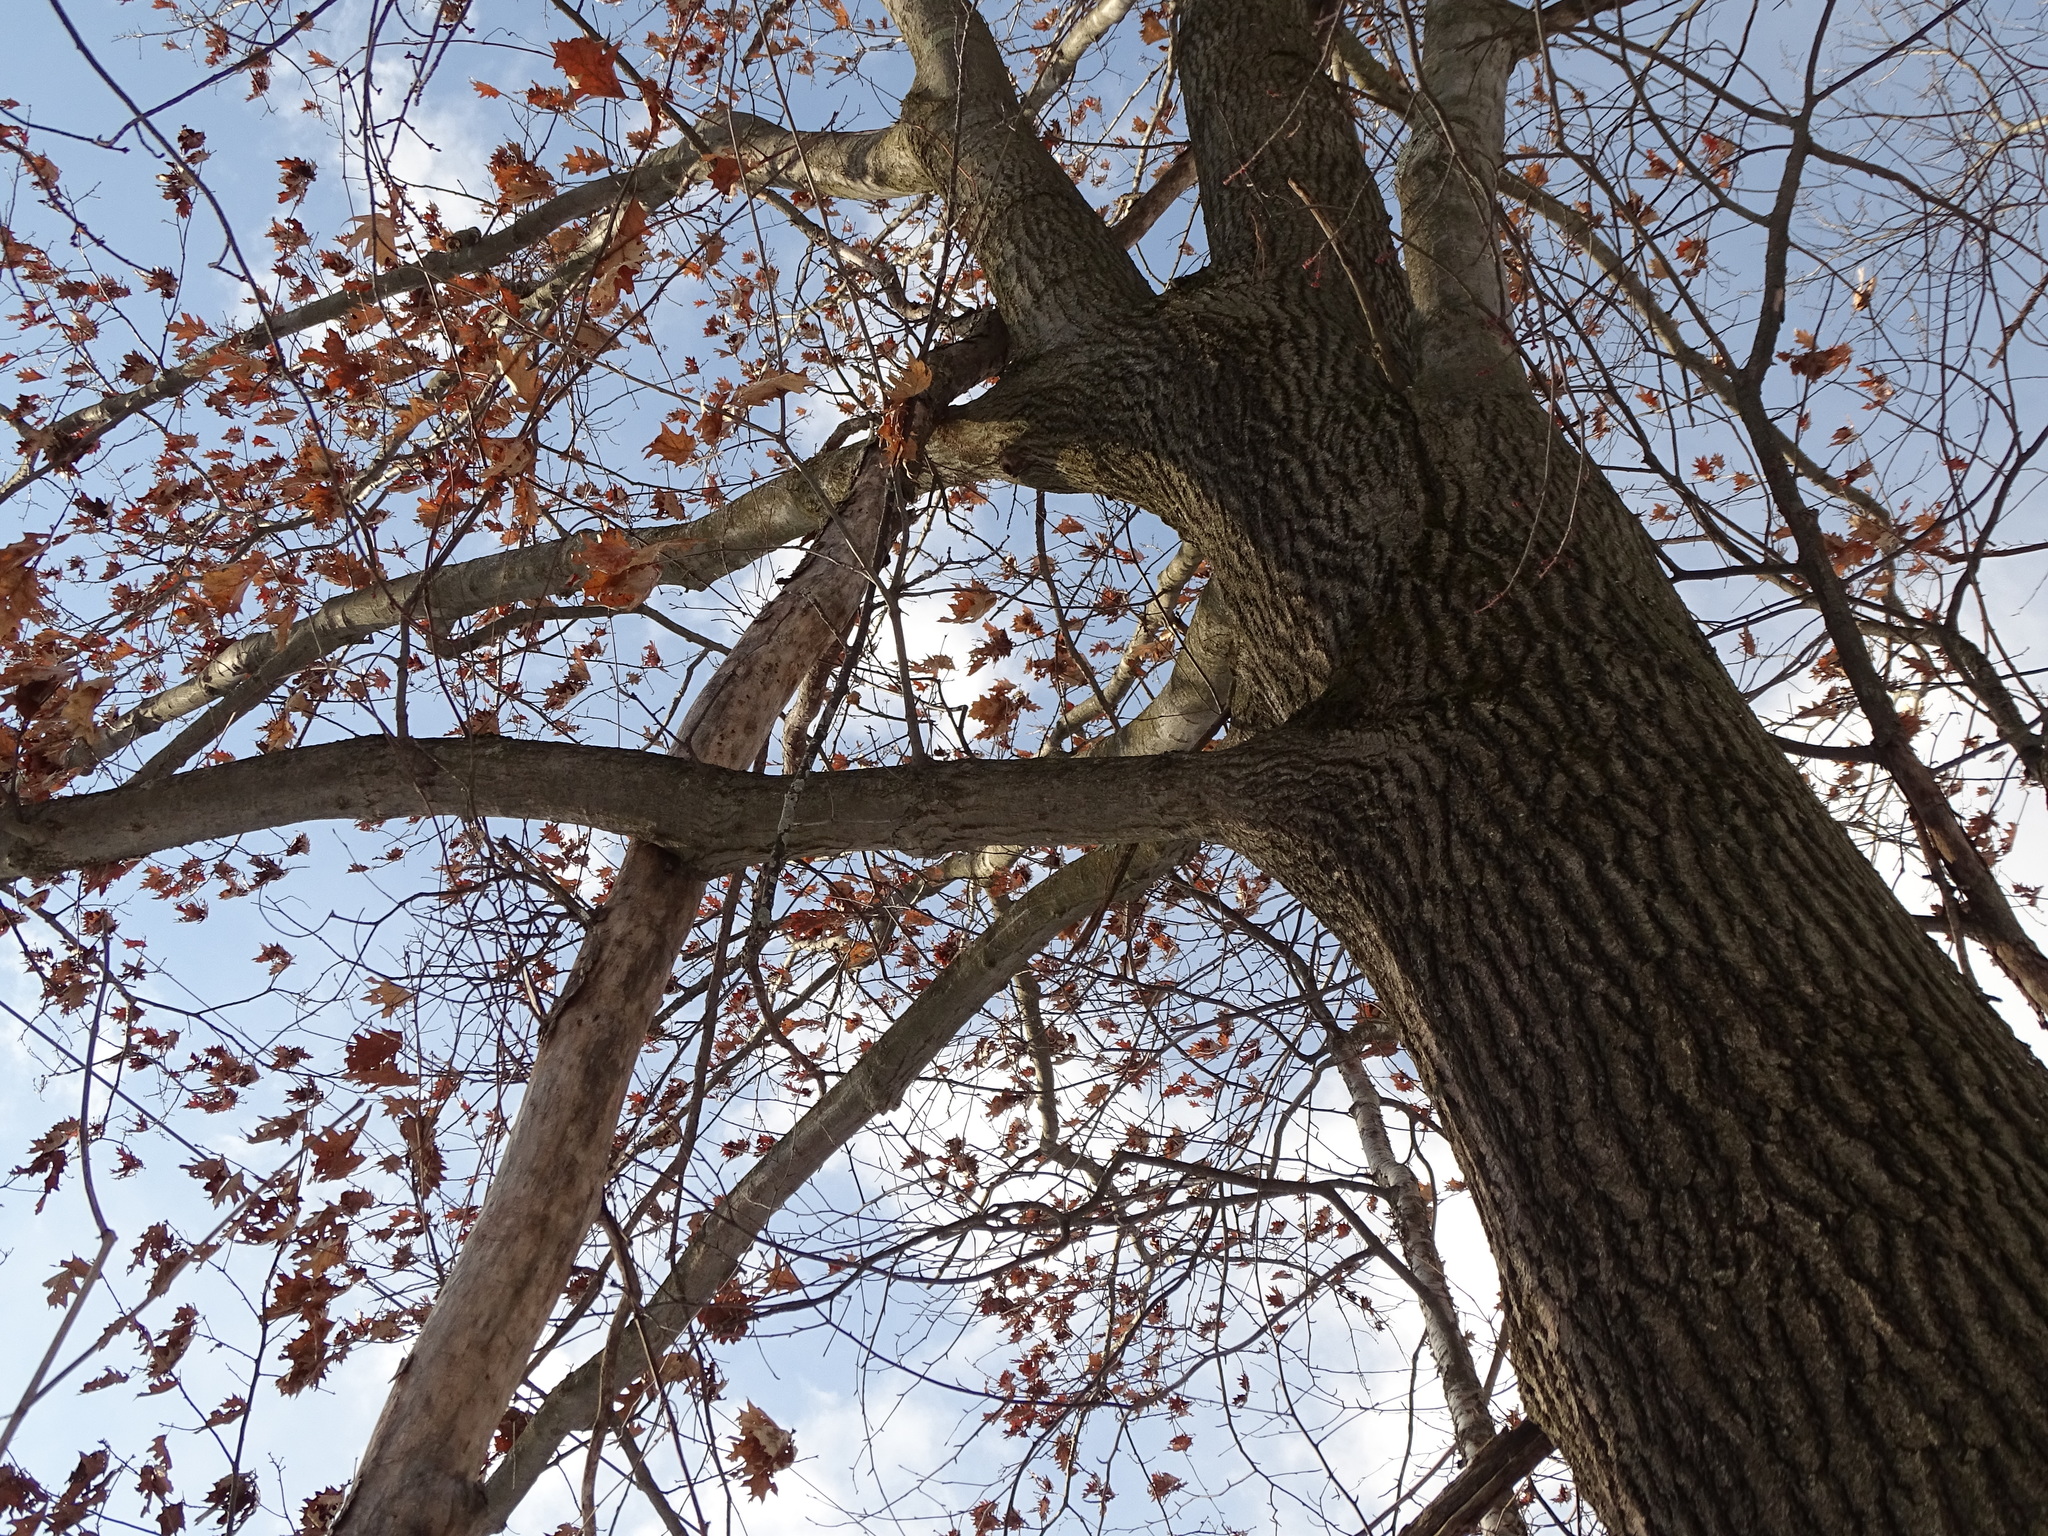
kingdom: Plantae
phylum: Tracheophyta
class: Magnoliopsida
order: Fagales
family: Fagaceae
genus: Quercus
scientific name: Quercus rubra
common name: Red oak
